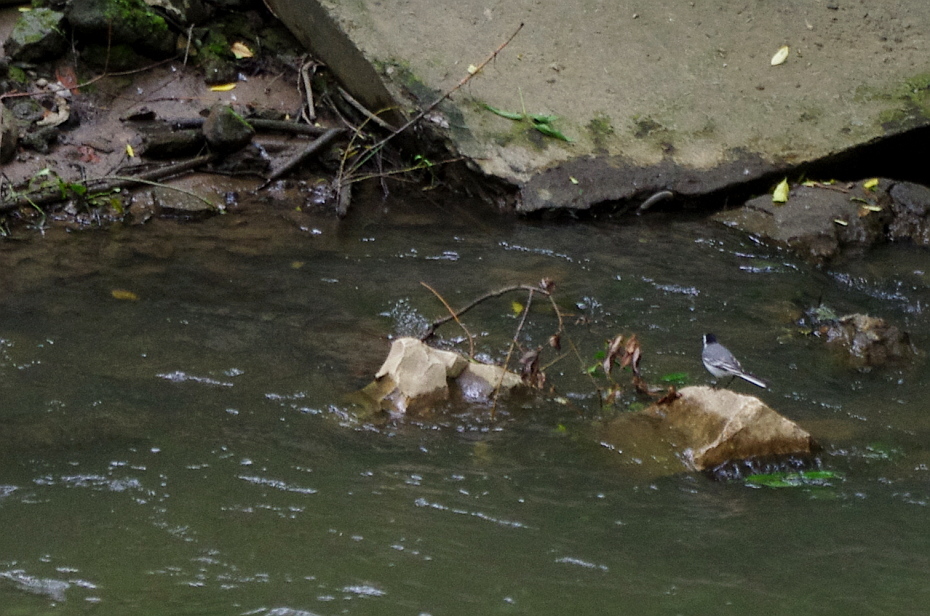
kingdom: Animalia
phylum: Chordata
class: Aves
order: Passeriformes
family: Motacillidae
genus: Motacilla
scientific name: Motacilla alba
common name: White wagtail
